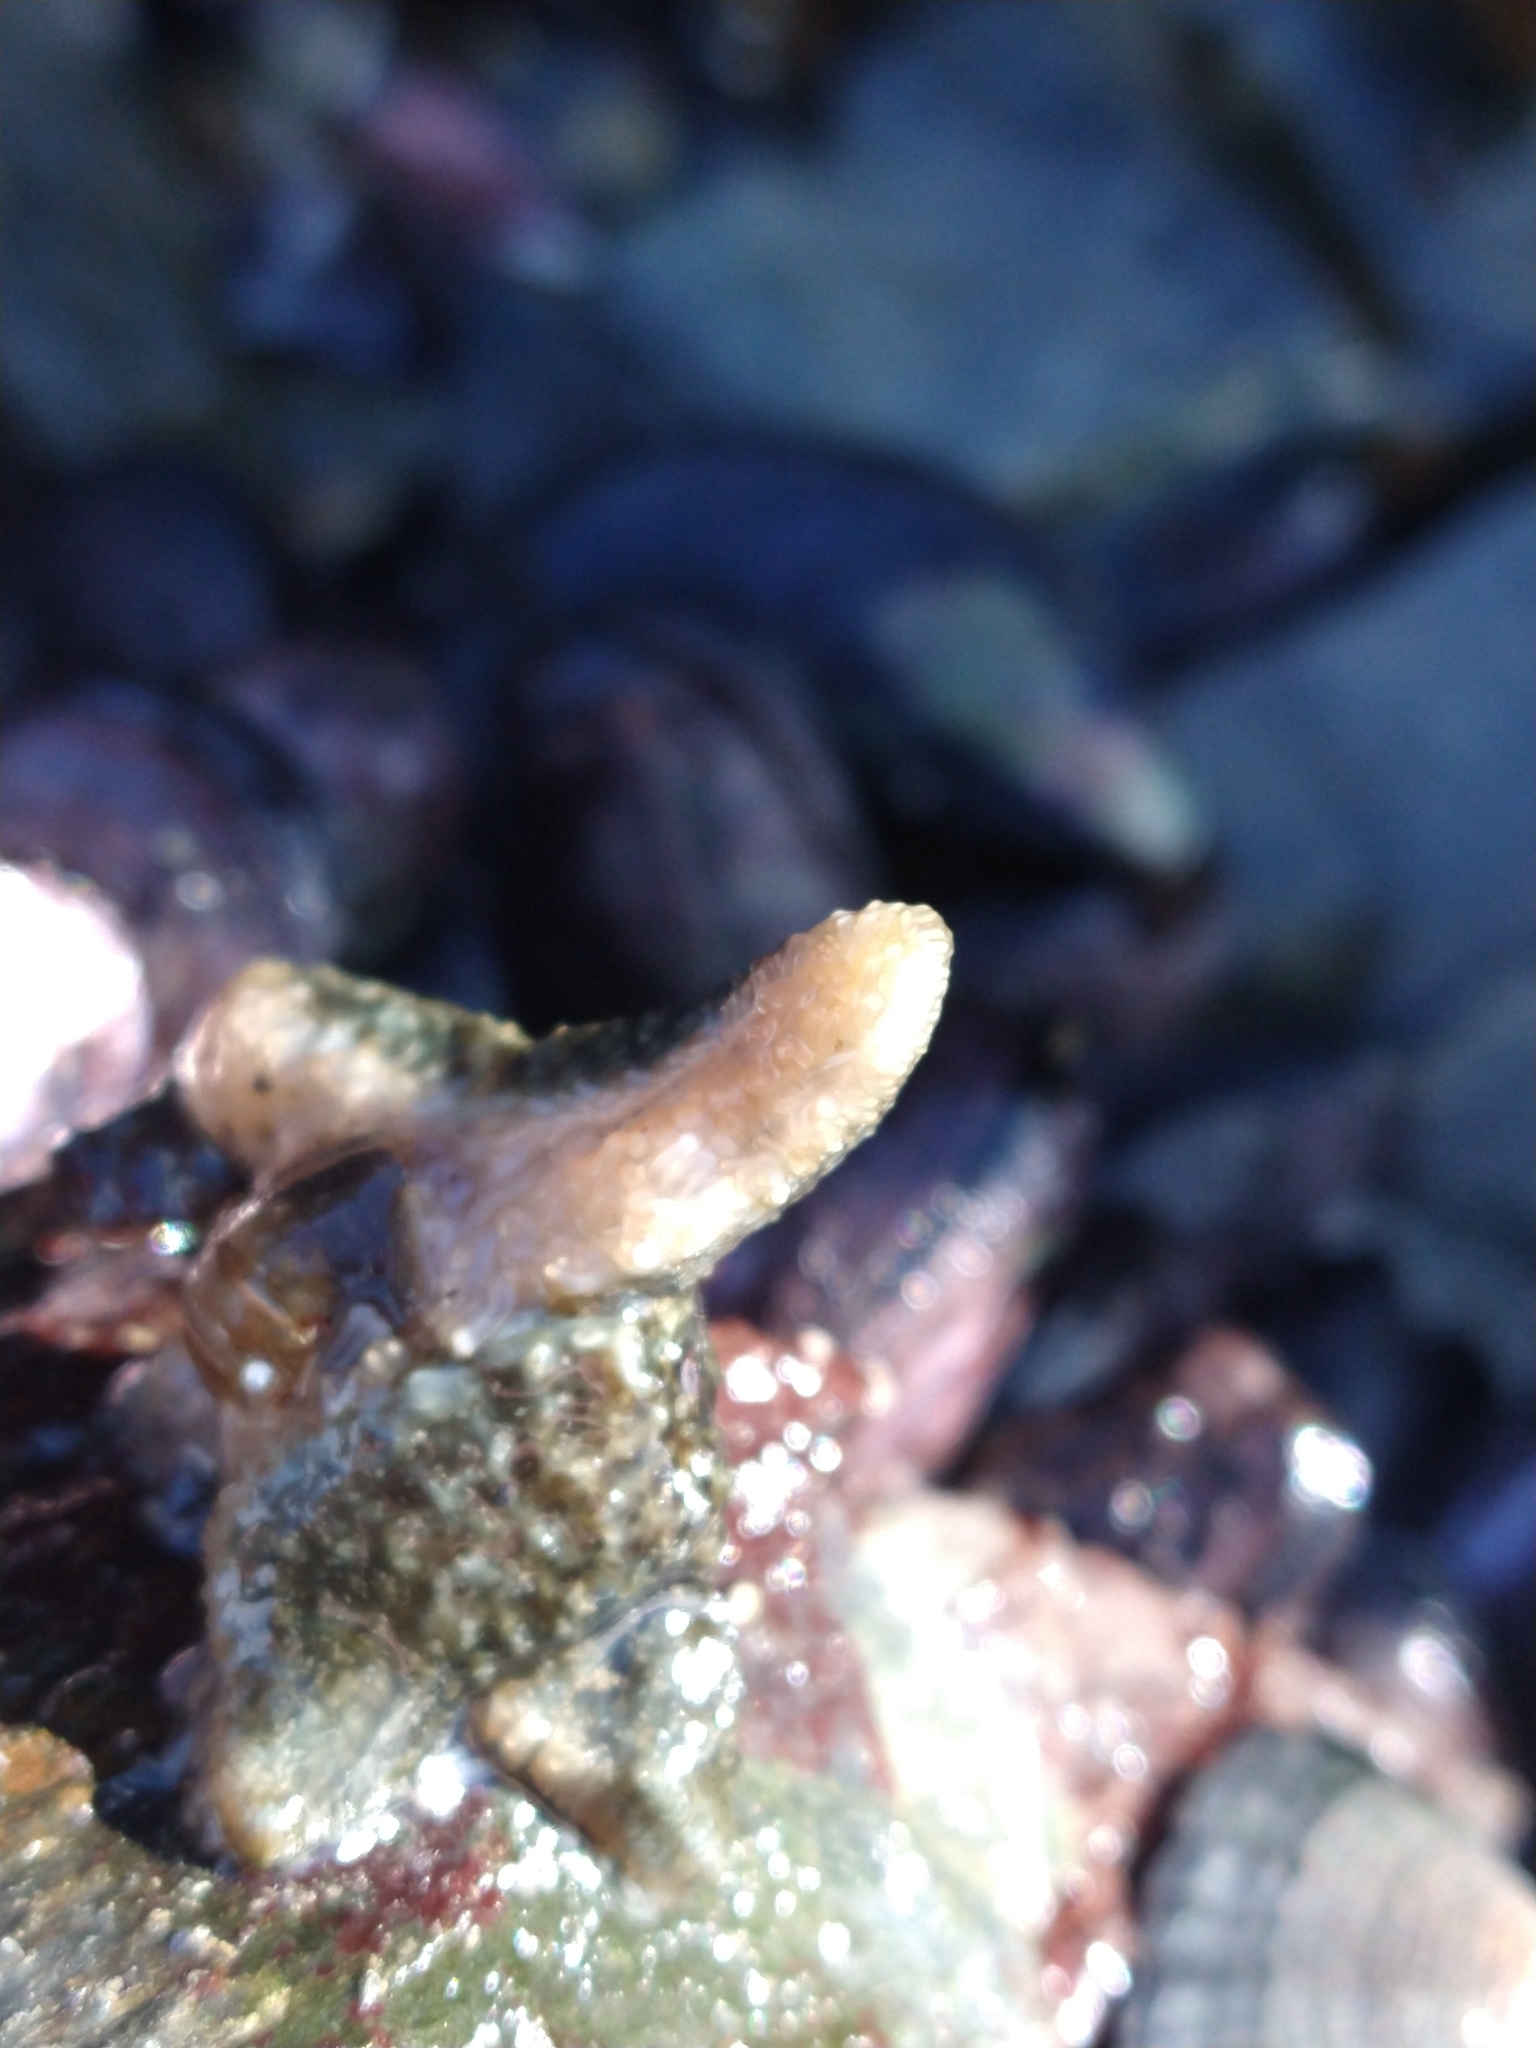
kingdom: Animalia
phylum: Echinodermata
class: Asteroidea
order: Forcipulatida
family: Asteriidae
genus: Anasterias
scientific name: Anasterias antarctica
